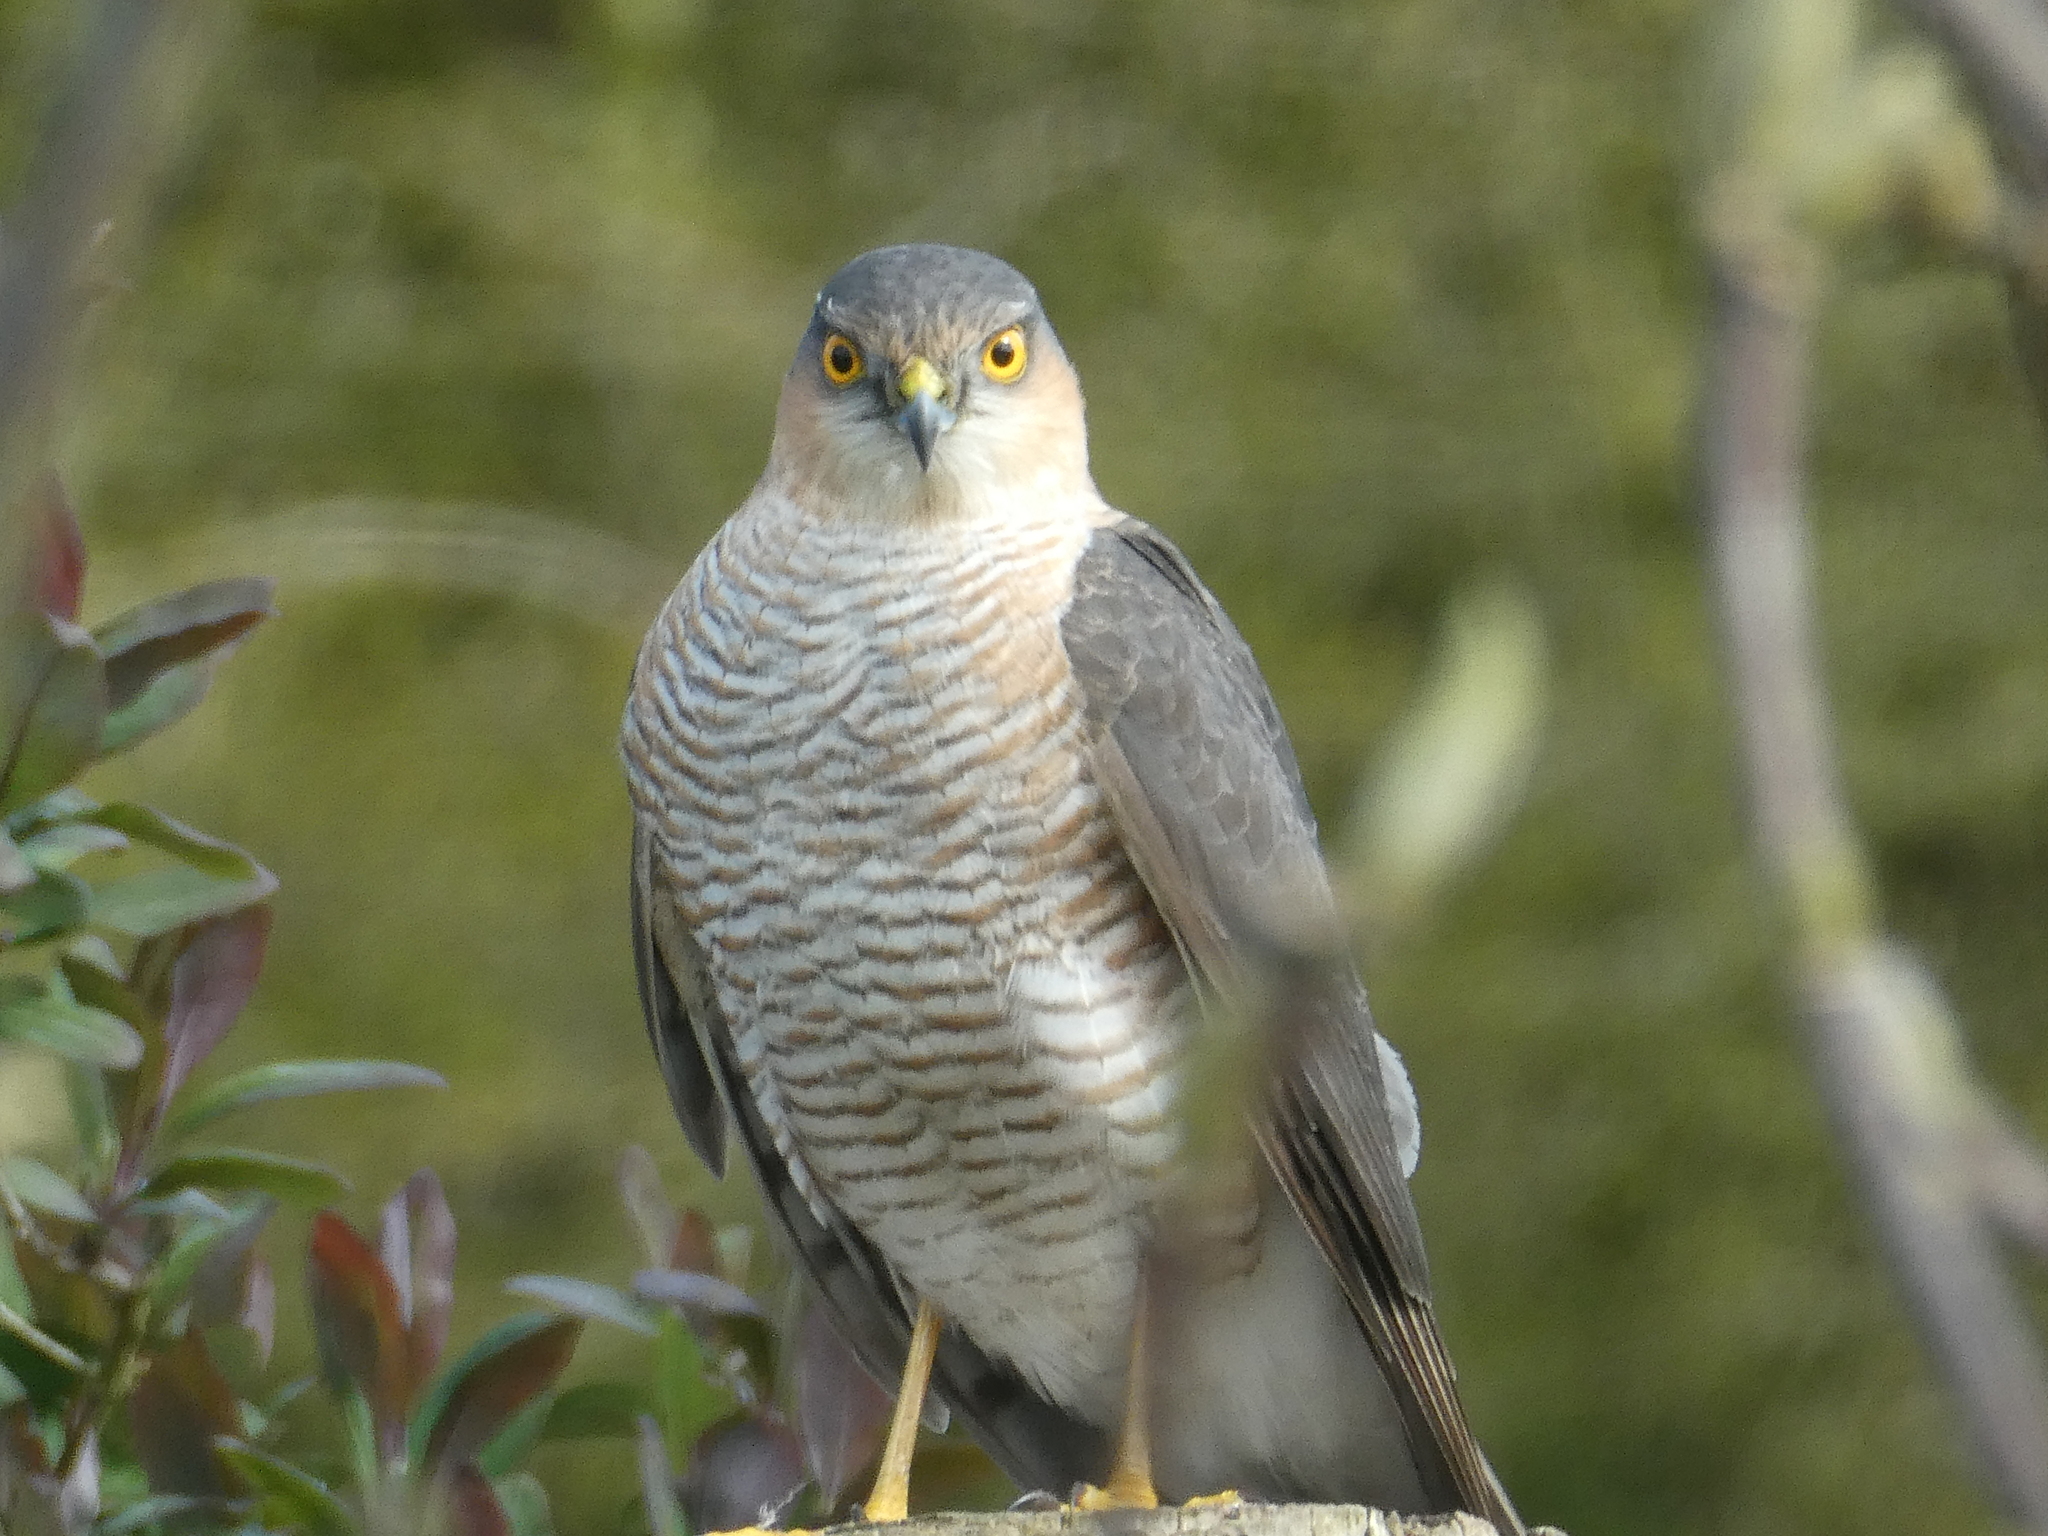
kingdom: Animalia
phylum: Chordata
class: Aves
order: Accipitriformes
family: Accipitridae
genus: Accipiter
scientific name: Accipiter nisus
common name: Eurasian sparrowhawk
